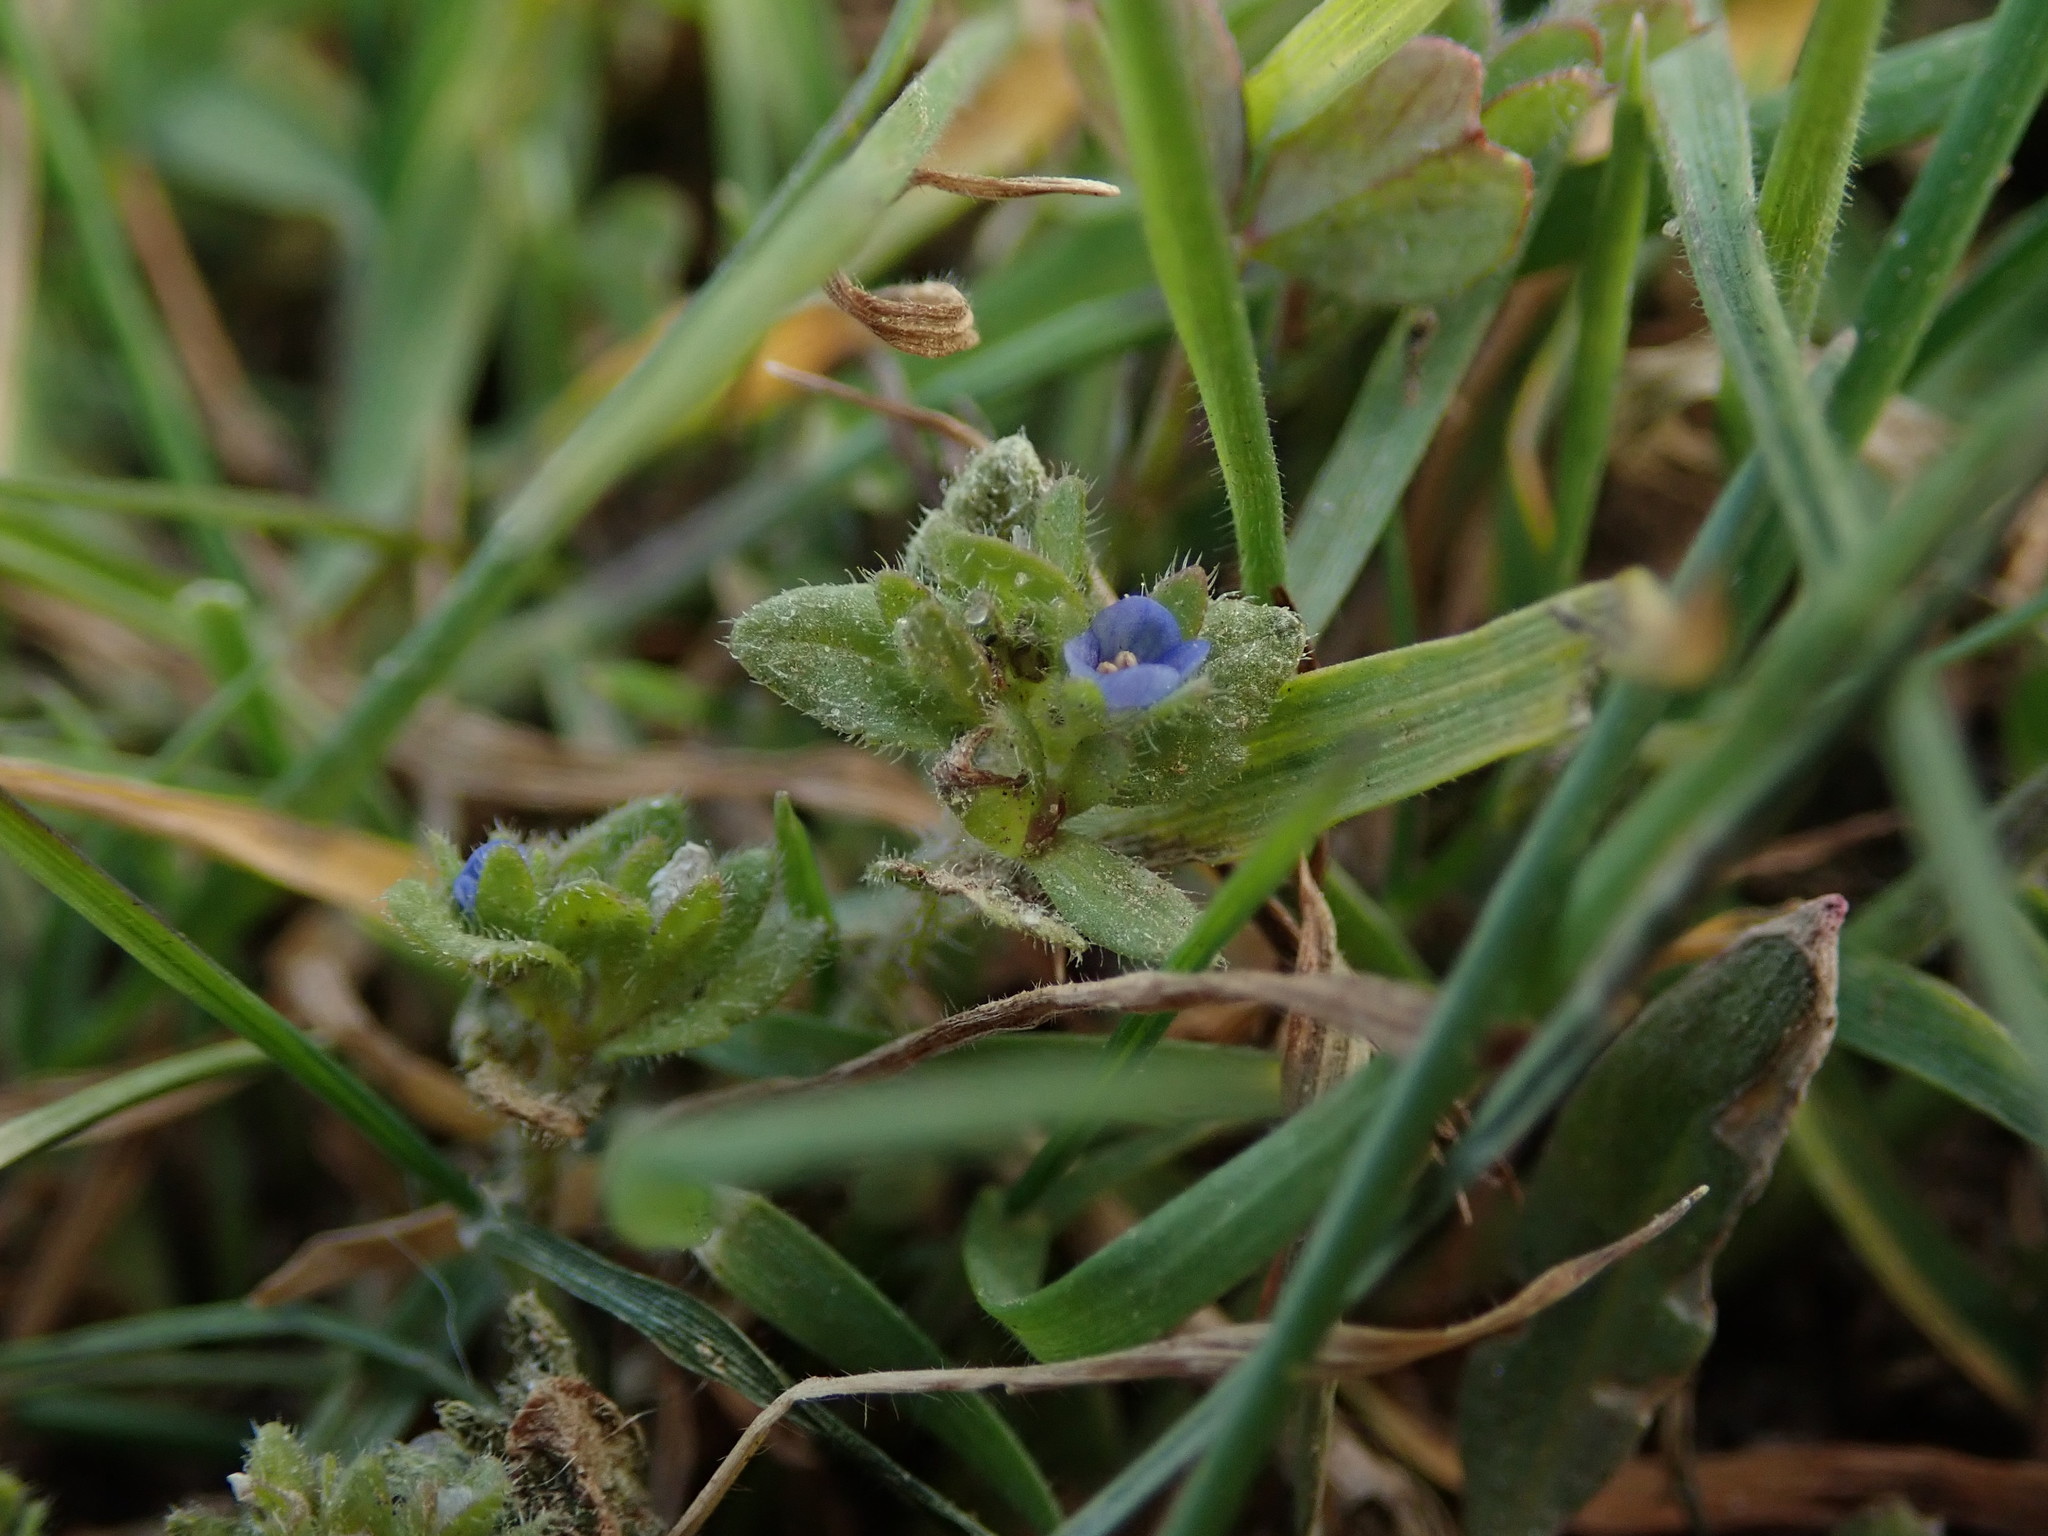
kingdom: Plantae
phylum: Tracheophyta
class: Magnoliopsida
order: Lamiales
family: Plantaginaceae
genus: Veronica
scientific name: Veronica arvensis
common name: Corn speedwell
